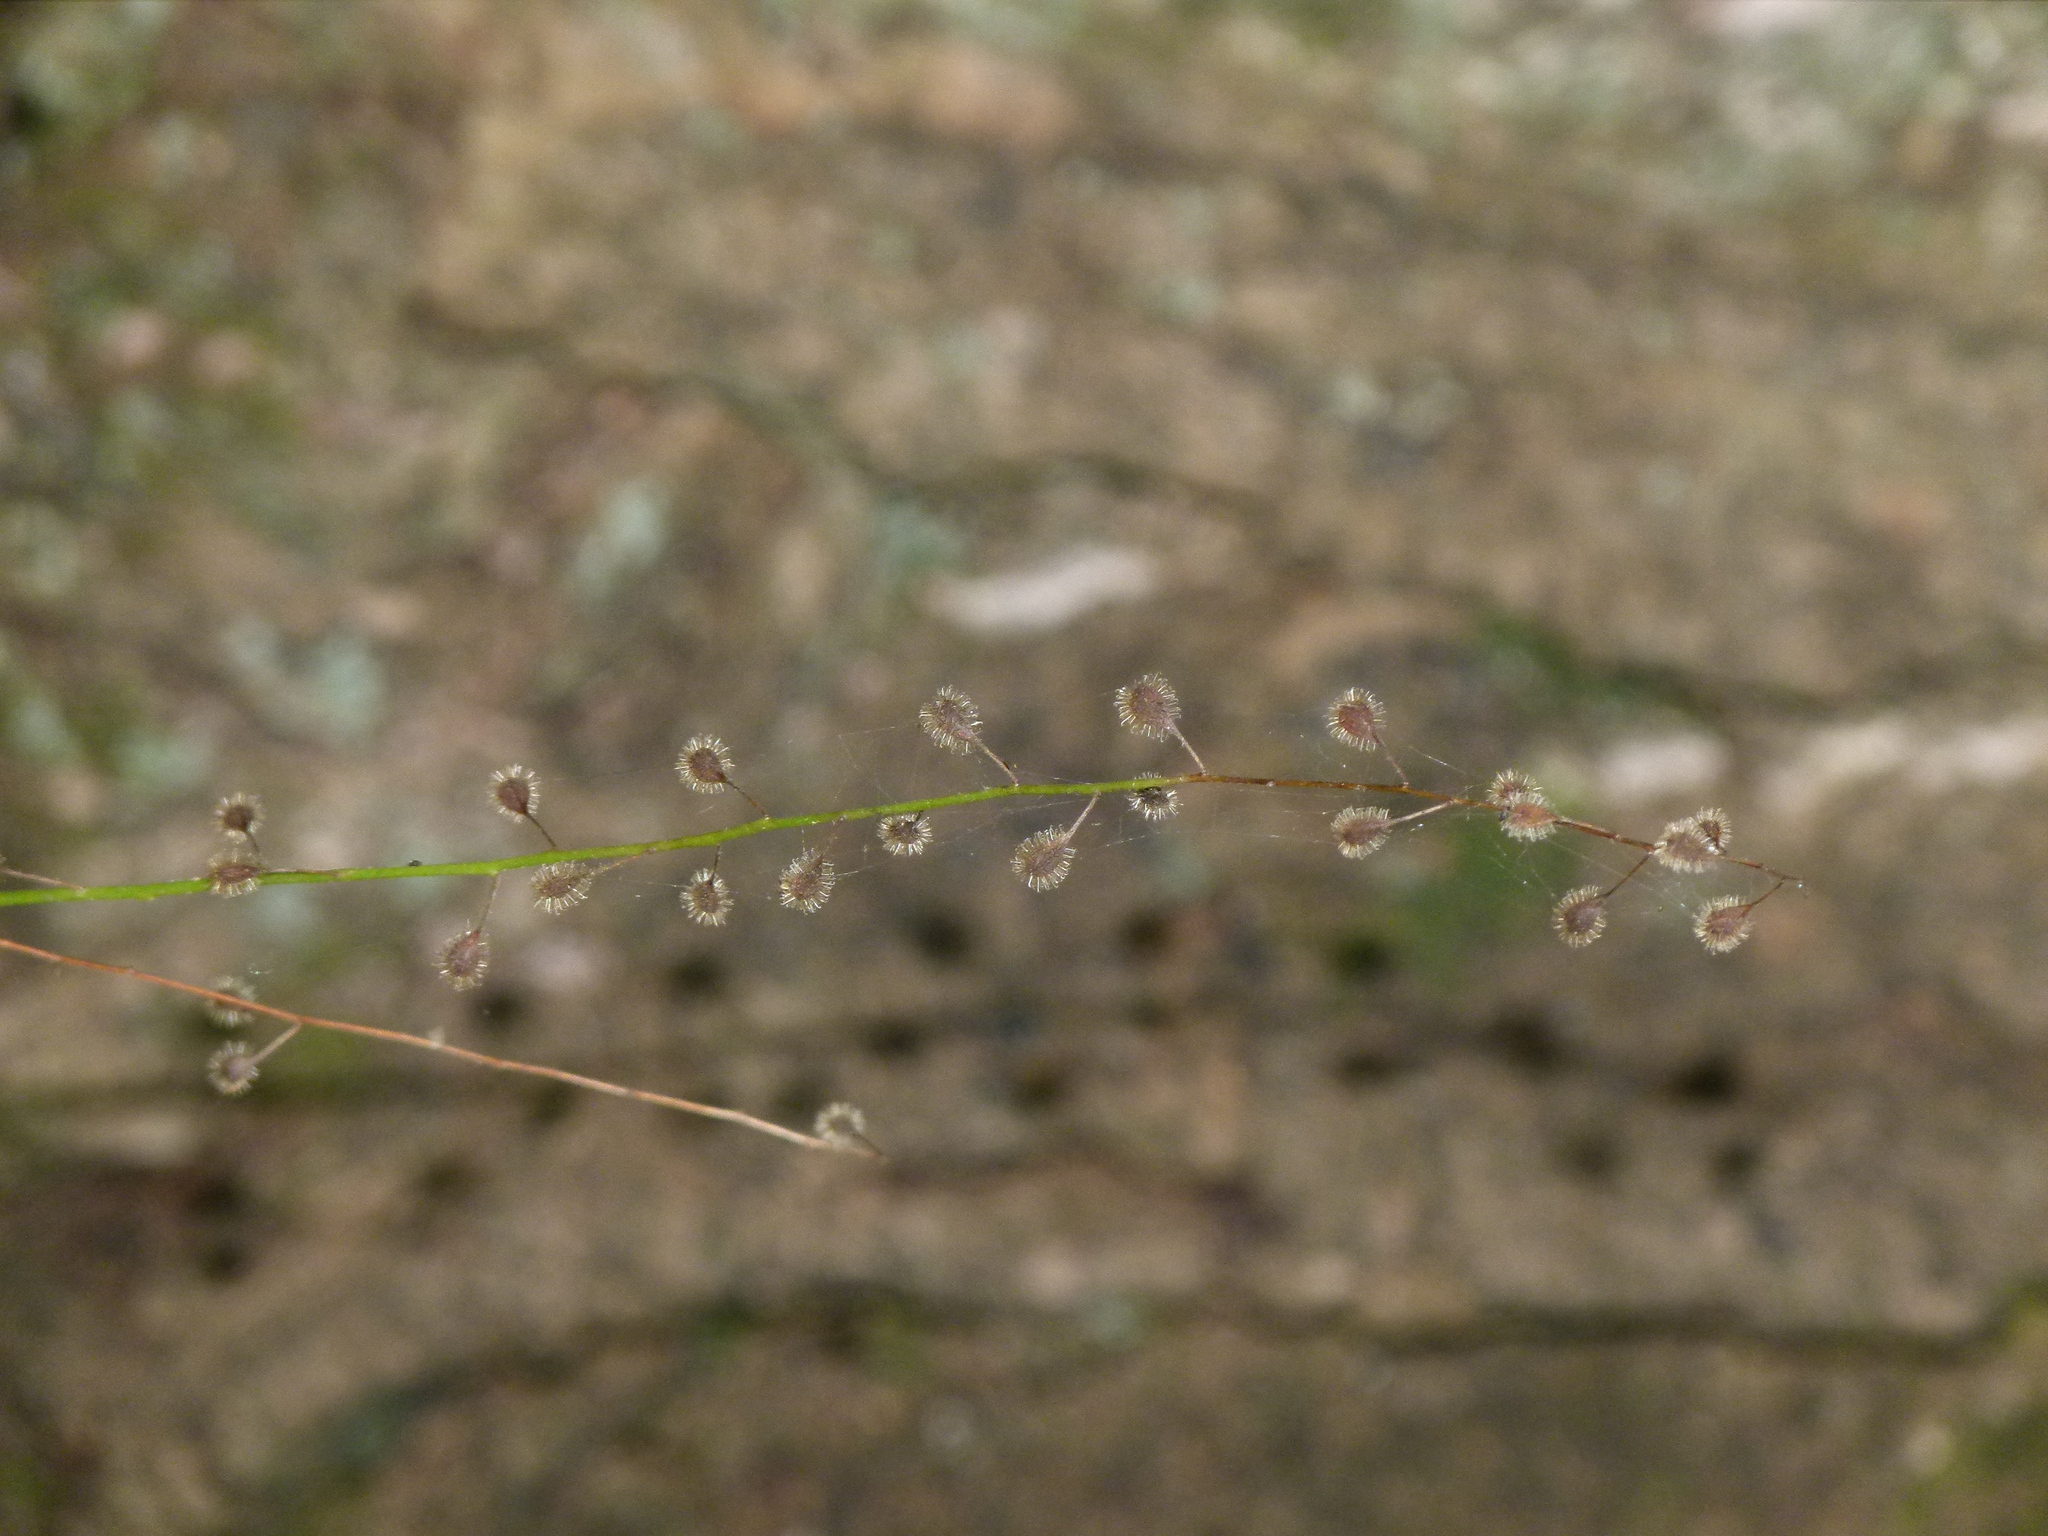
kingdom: Plantae
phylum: Tracheophyta
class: Magnoliopsida
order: Myrtales
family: Onagraceae
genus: Circaea
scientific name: Circaea canadensis
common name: Broad-leaved enchanter's nightshade
